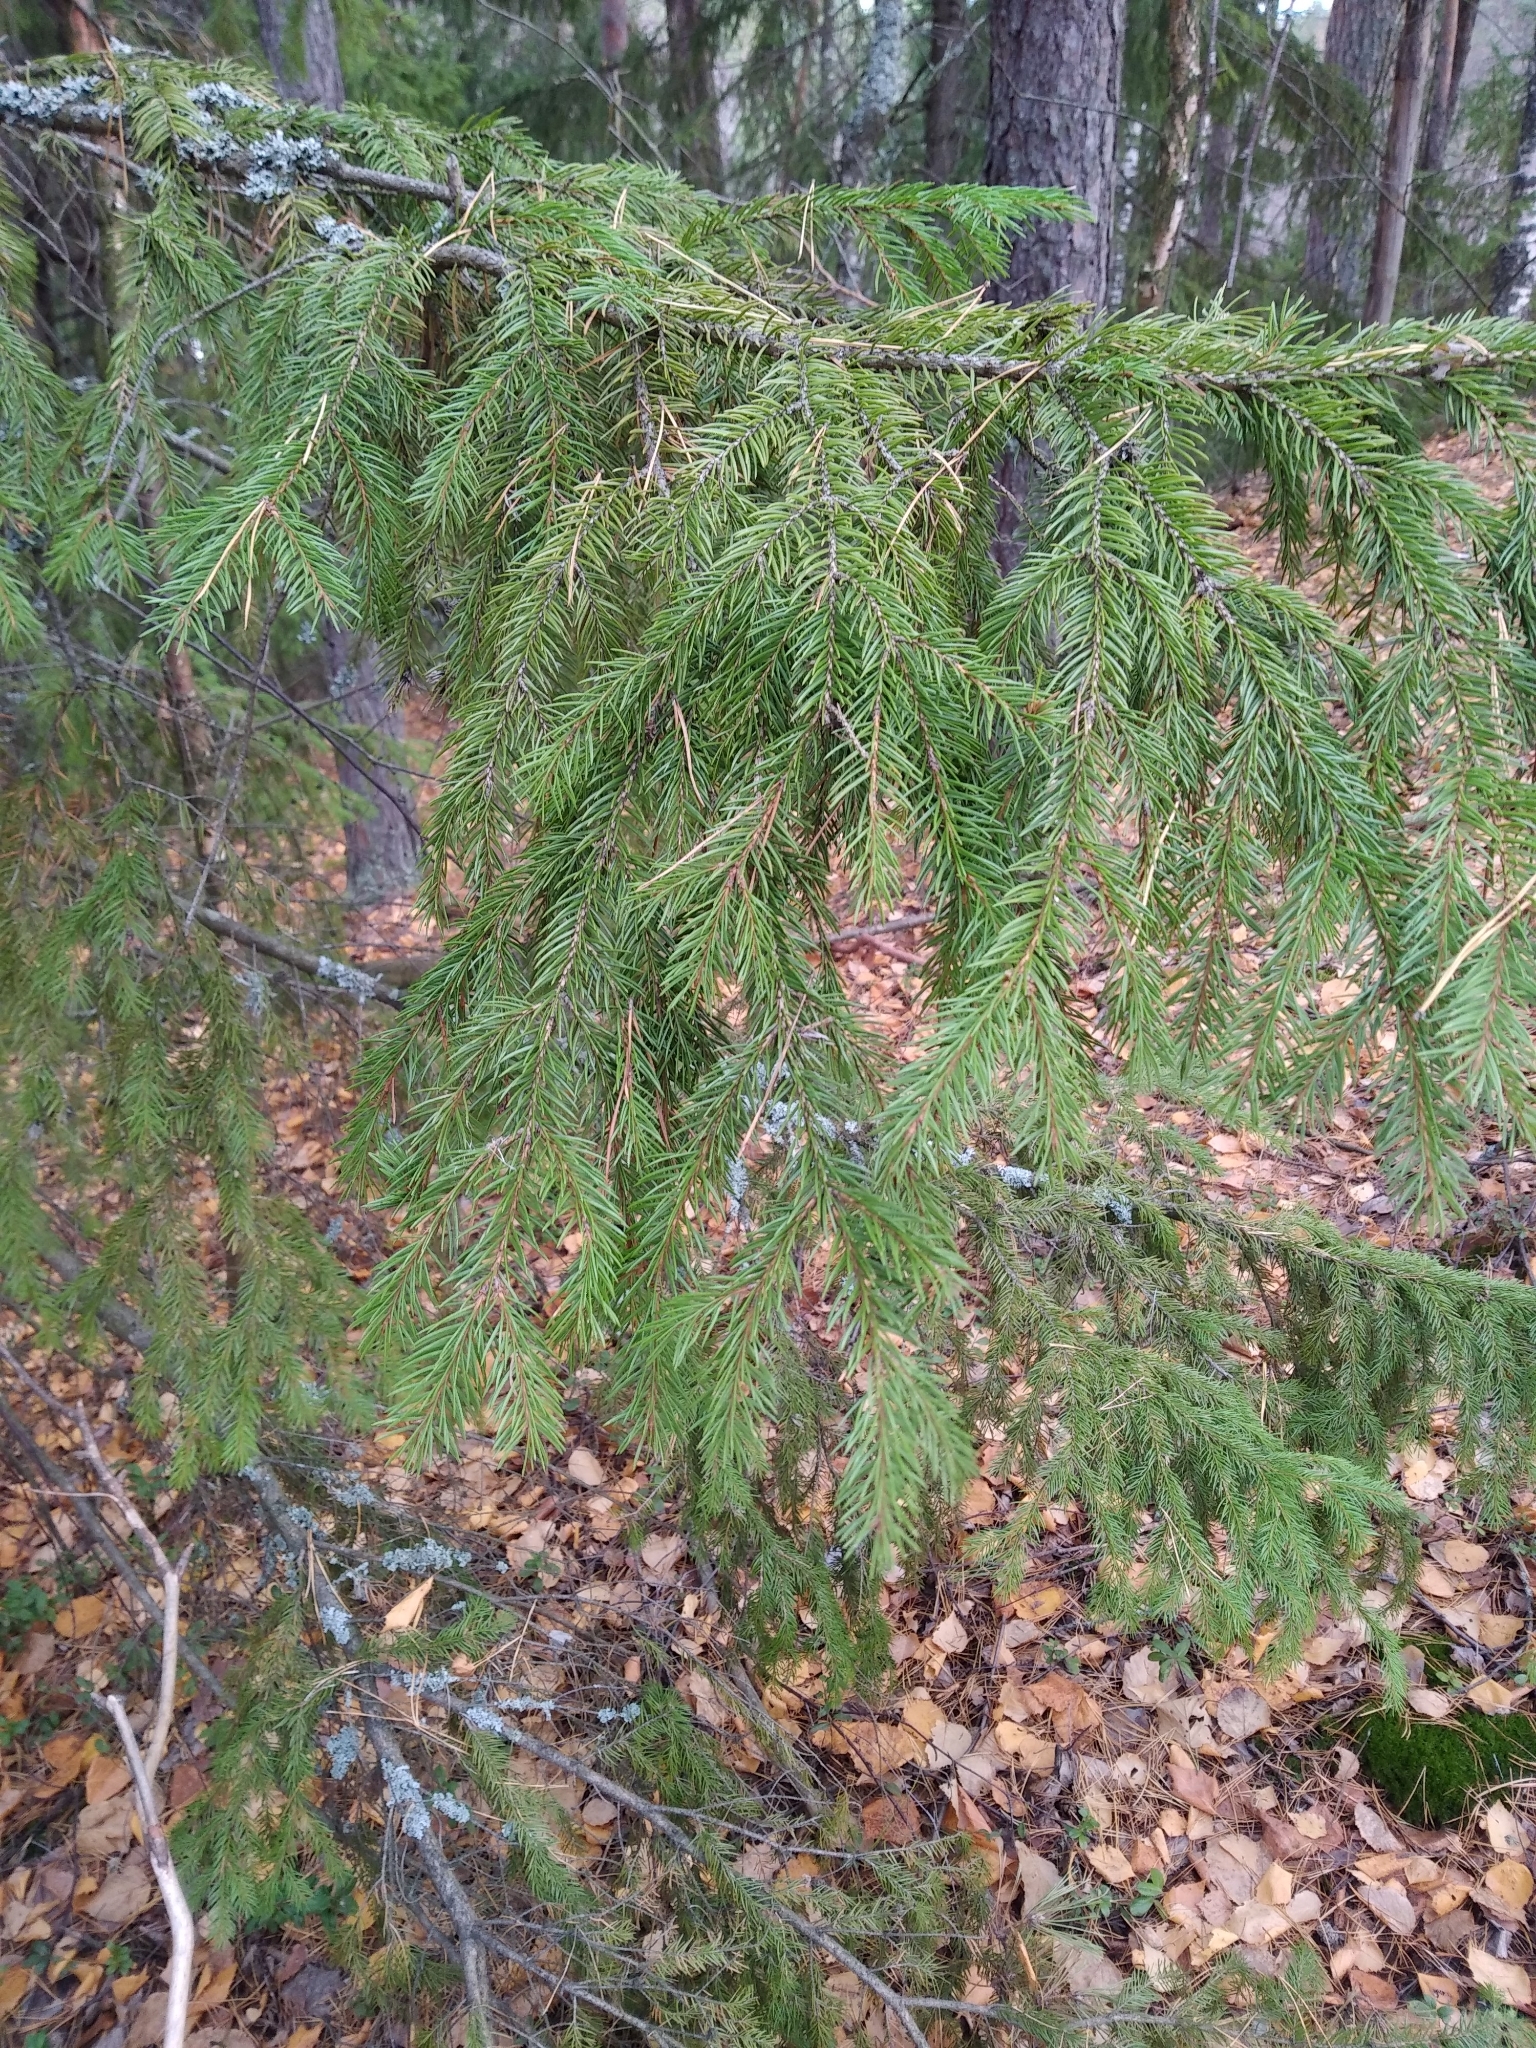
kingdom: Plantae
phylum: Tracheophyta
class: Pinopsida
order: Pinales
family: Pinaceae
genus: Picea
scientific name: Picea abies
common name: Norway spruce
